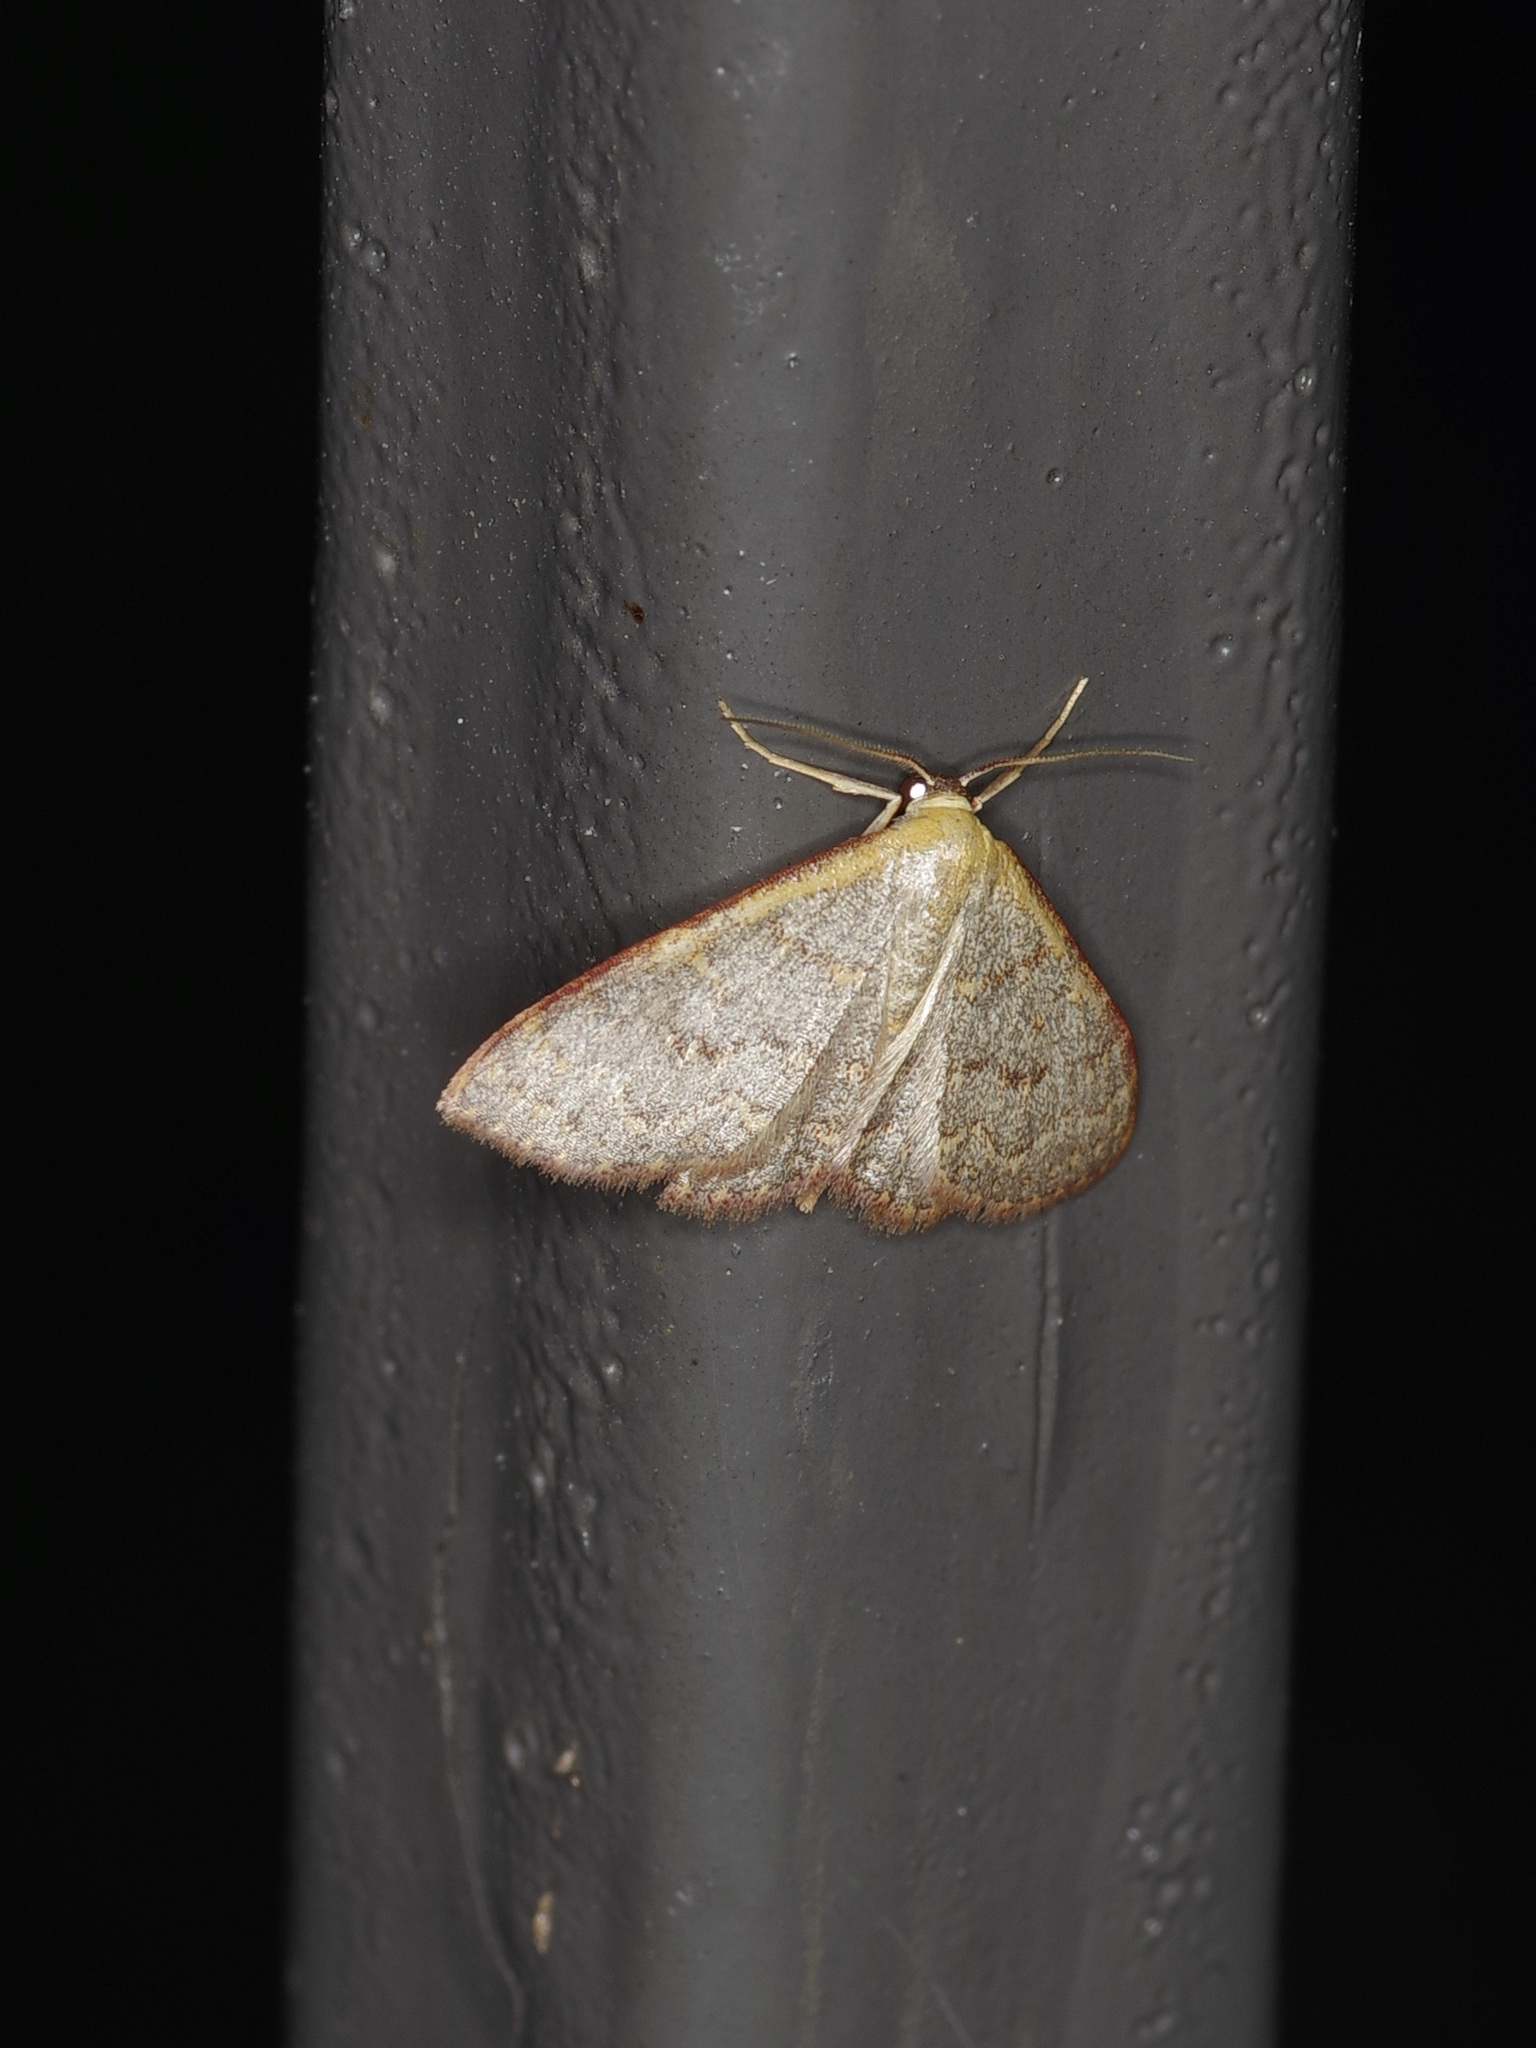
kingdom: Animalia
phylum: Arthropoda
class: Insecta
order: Lepidoptera
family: Geometridae
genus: Leptostales
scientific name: Leptostales pannaria
